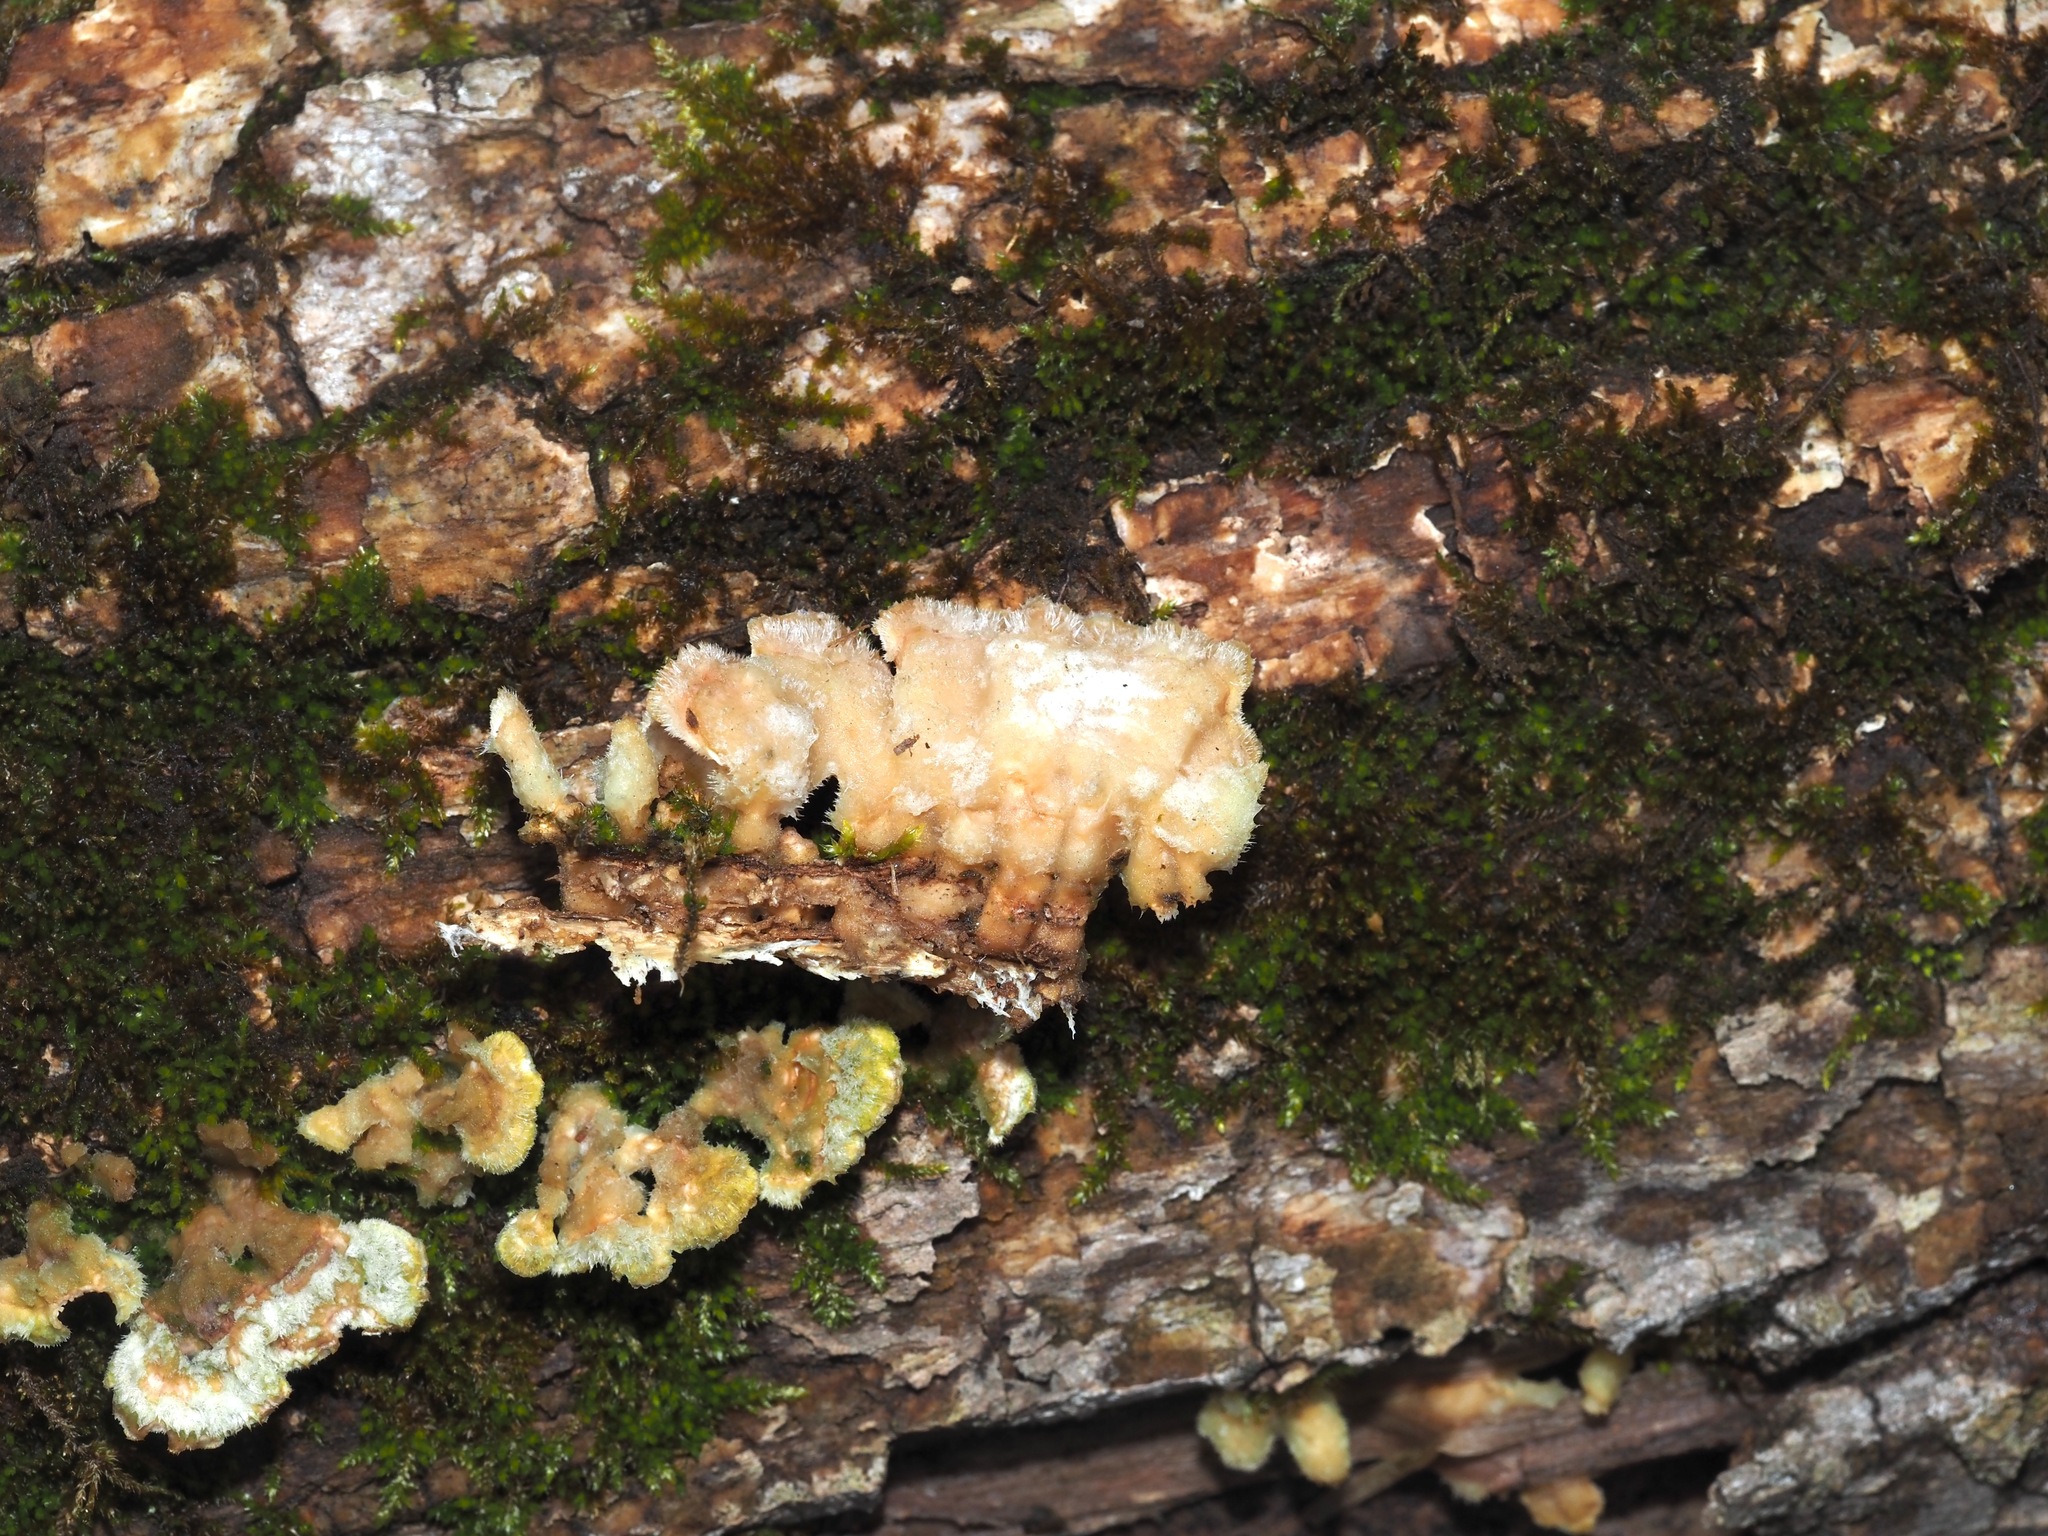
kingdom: Fungi
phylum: Basidiomycota
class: Agaricomycetes
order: Polyporales
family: Steccherinaceae
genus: Steccherinum
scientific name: Steccherinum ochraceum
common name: Ochre spreading tooth
